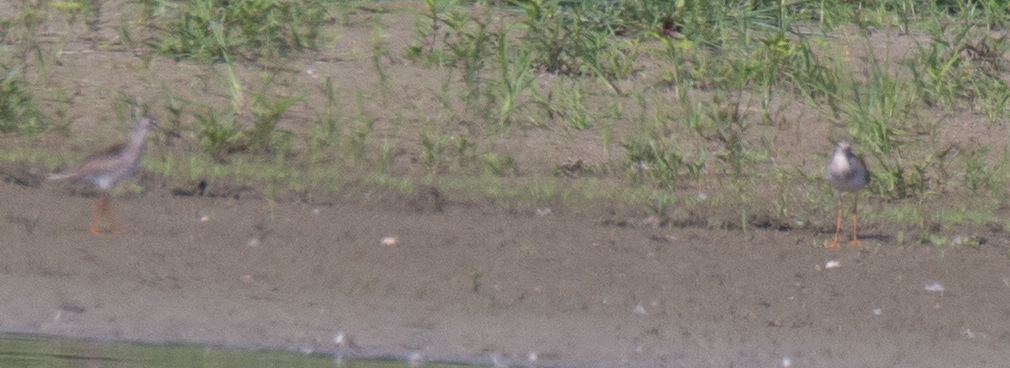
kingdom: Animalia
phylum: Chordata
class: Aves
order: Charadriiformes
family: Scolopacidae
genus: Tringa
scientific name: Tringa totanus
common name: Common redshank
